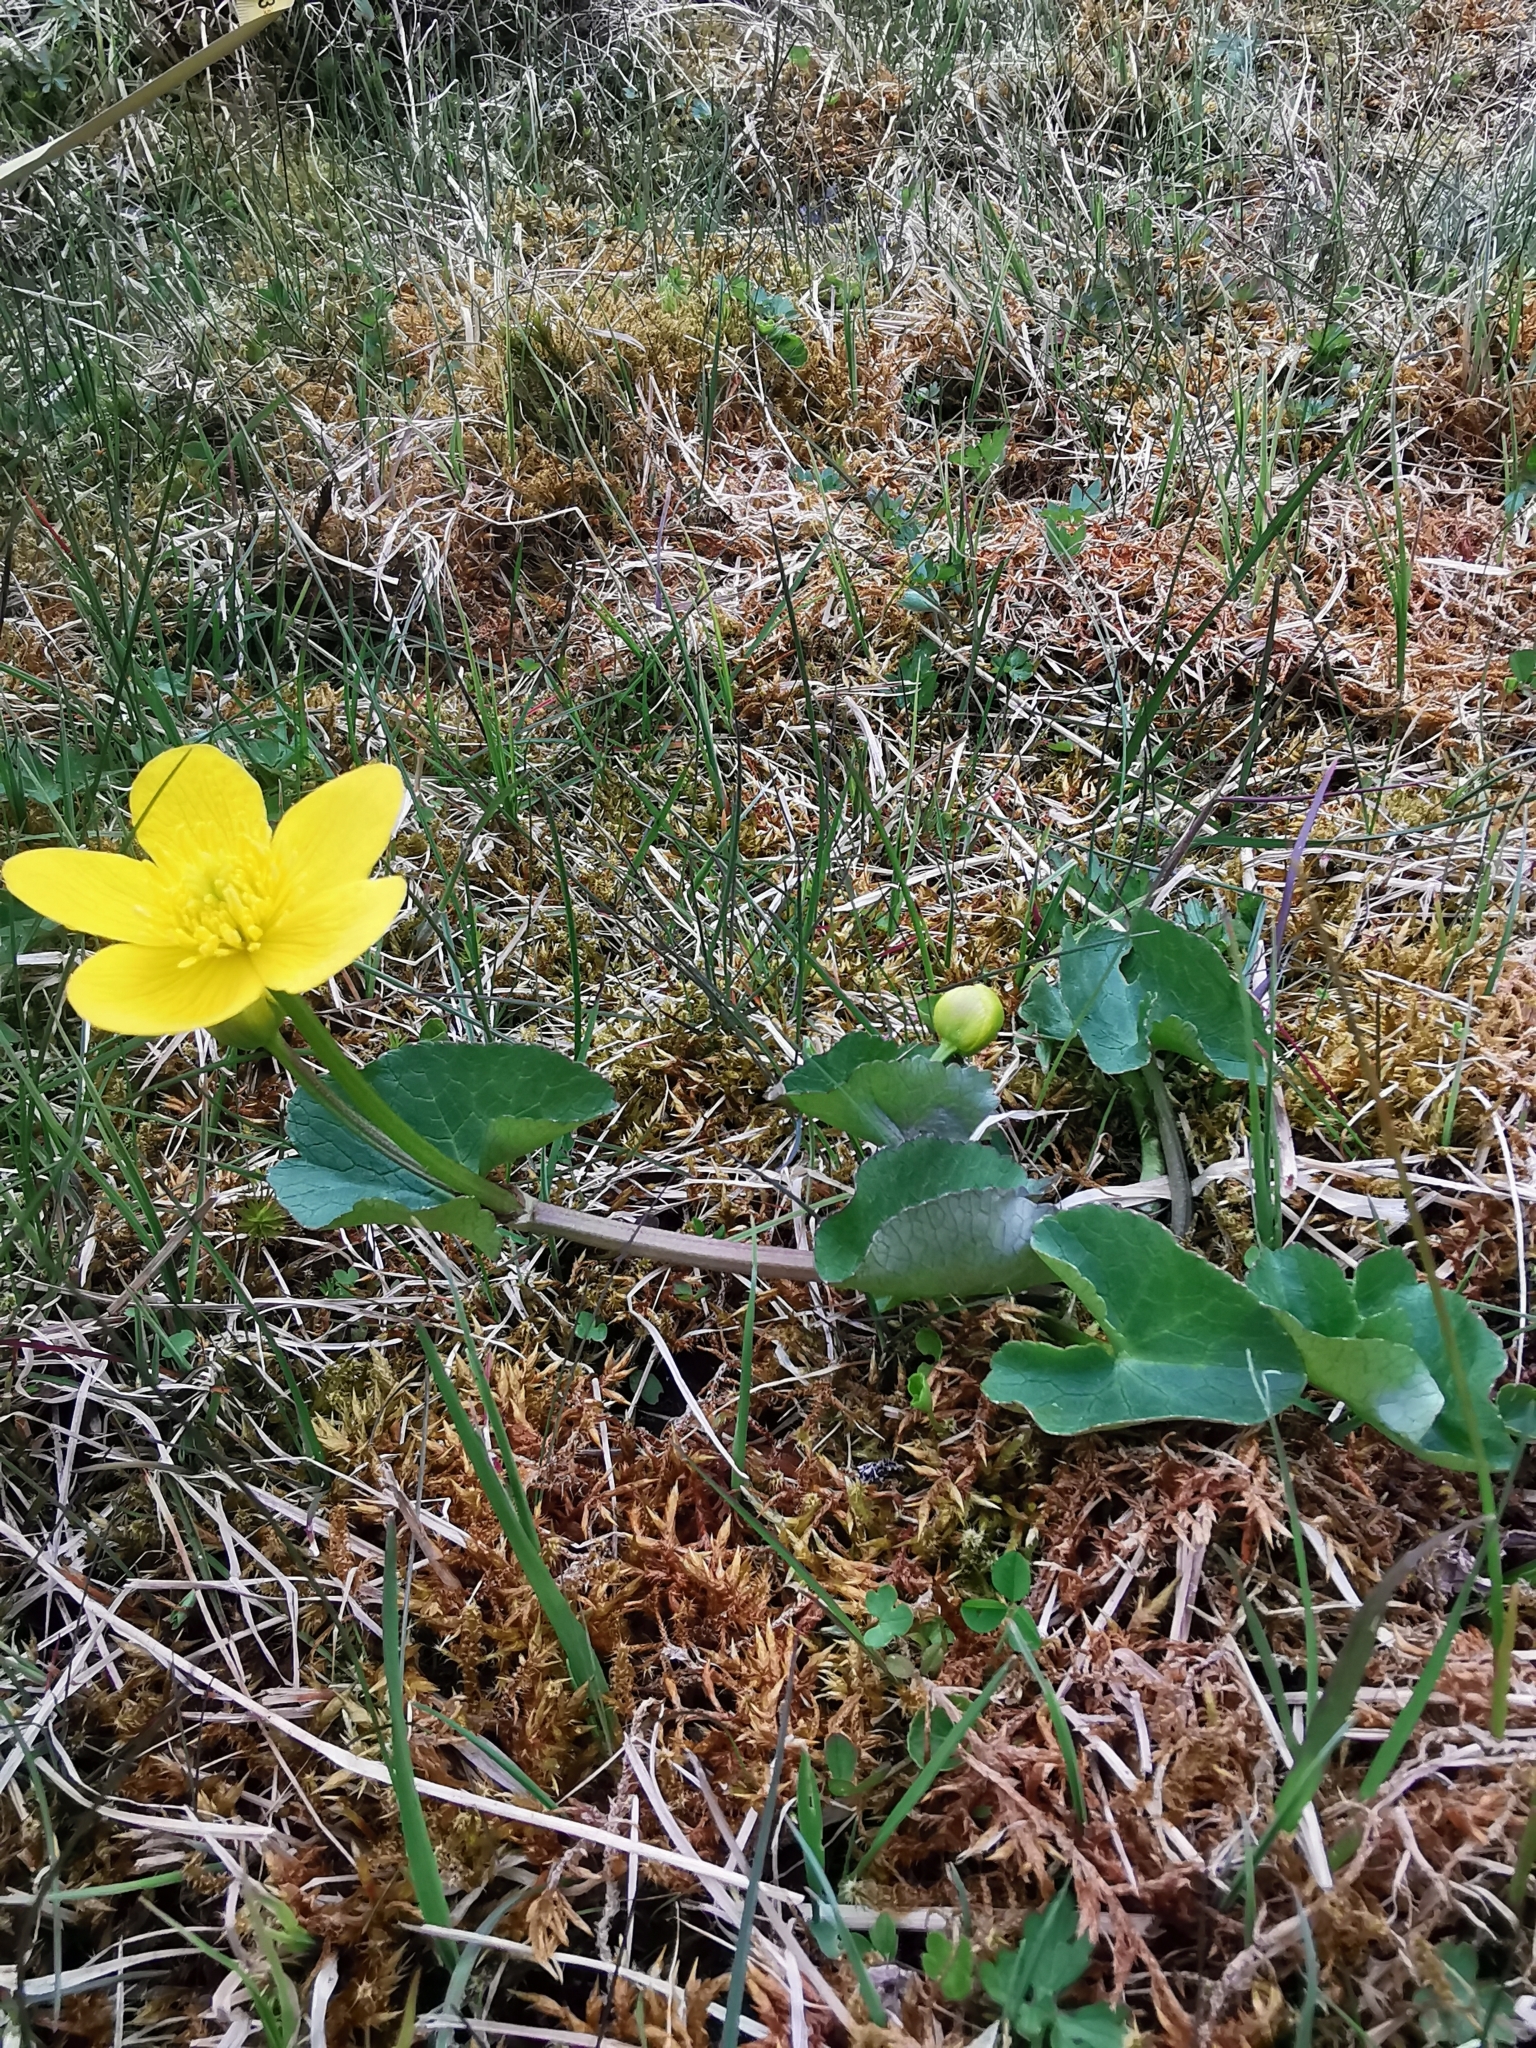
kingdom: Plantae
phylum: Tracheophyta
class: Magnoliopsida
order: Ranunculales
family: Ranunculaceae
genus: Caltha
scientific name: Caltha palustris
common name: Marsh marigold
